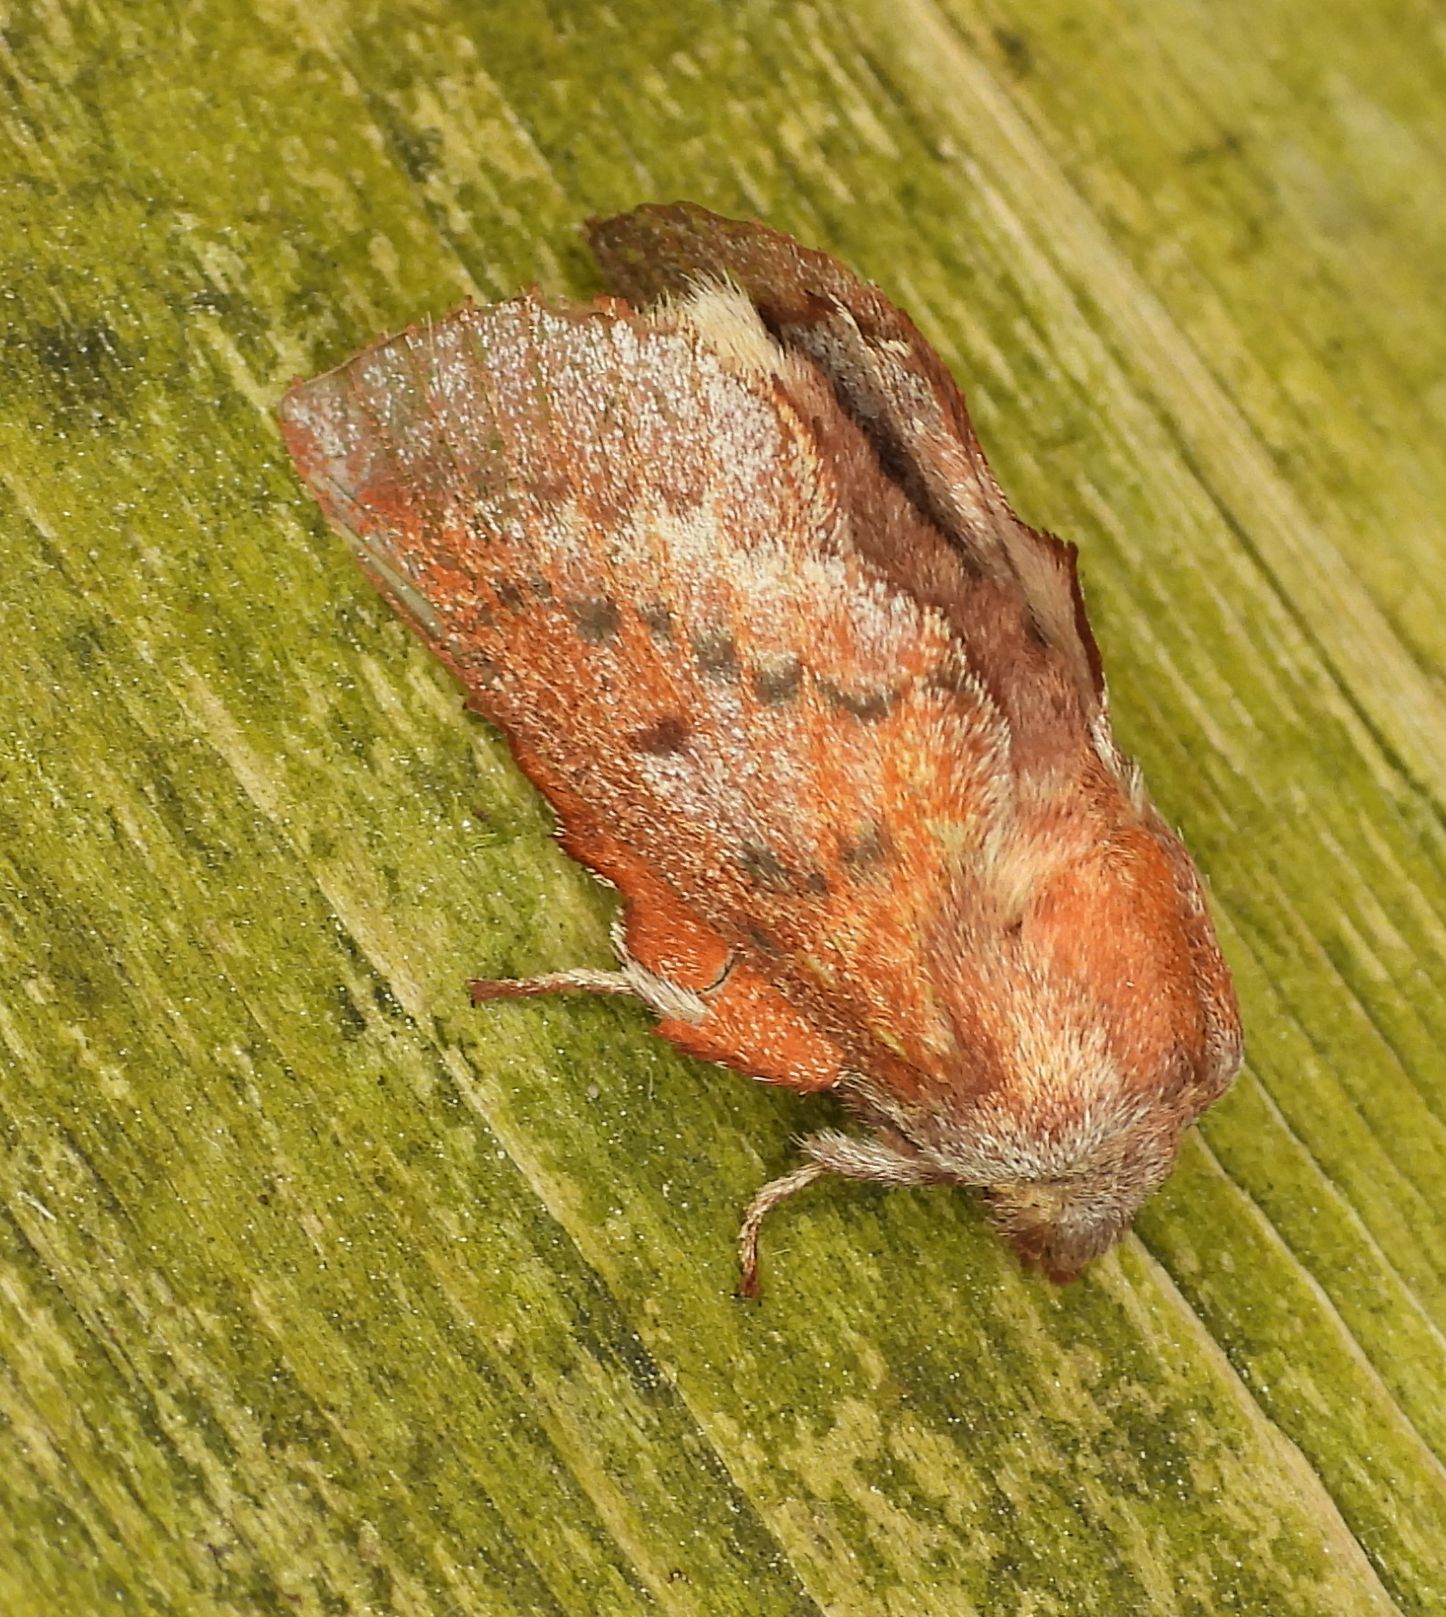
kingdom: Animalia
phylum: Arthropoda
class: Insecta
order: Lepidoptera
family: Lasiocampidae
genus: Phyllodesma
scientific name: Phyllodesma americana
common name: American lappet moth
